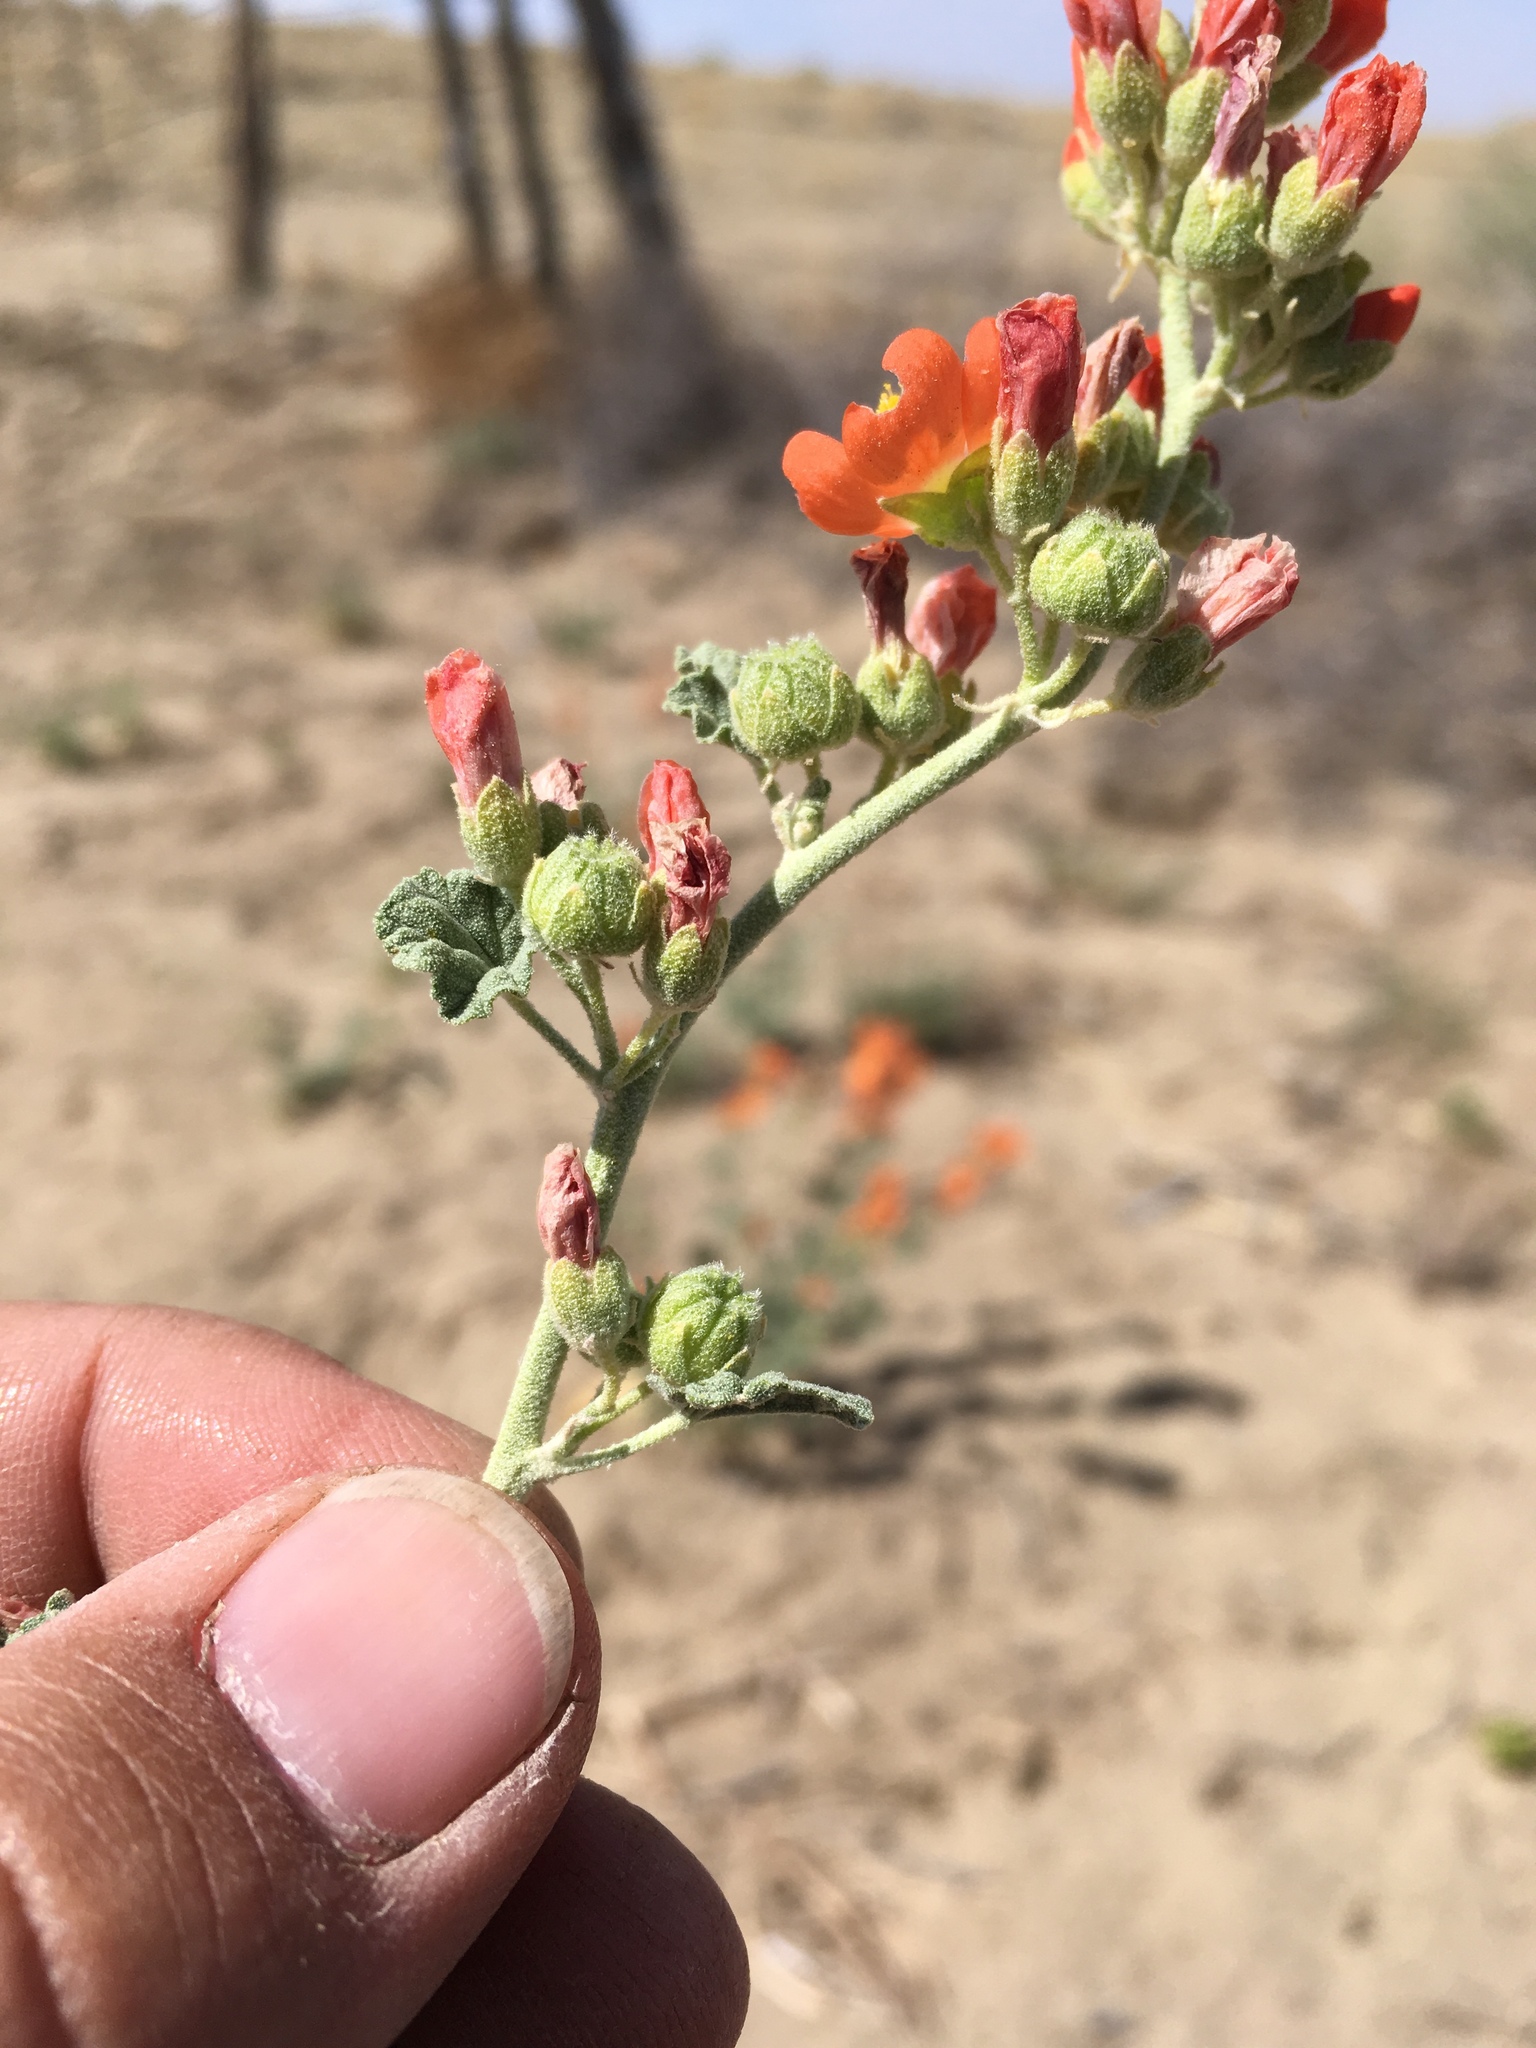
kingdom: Plantae
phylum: Tracheophyta
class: Magnoliopsida
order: Malvales
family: Malvaceae
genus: Sphaeralcea
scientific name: Sphaeralcea parvifolia
